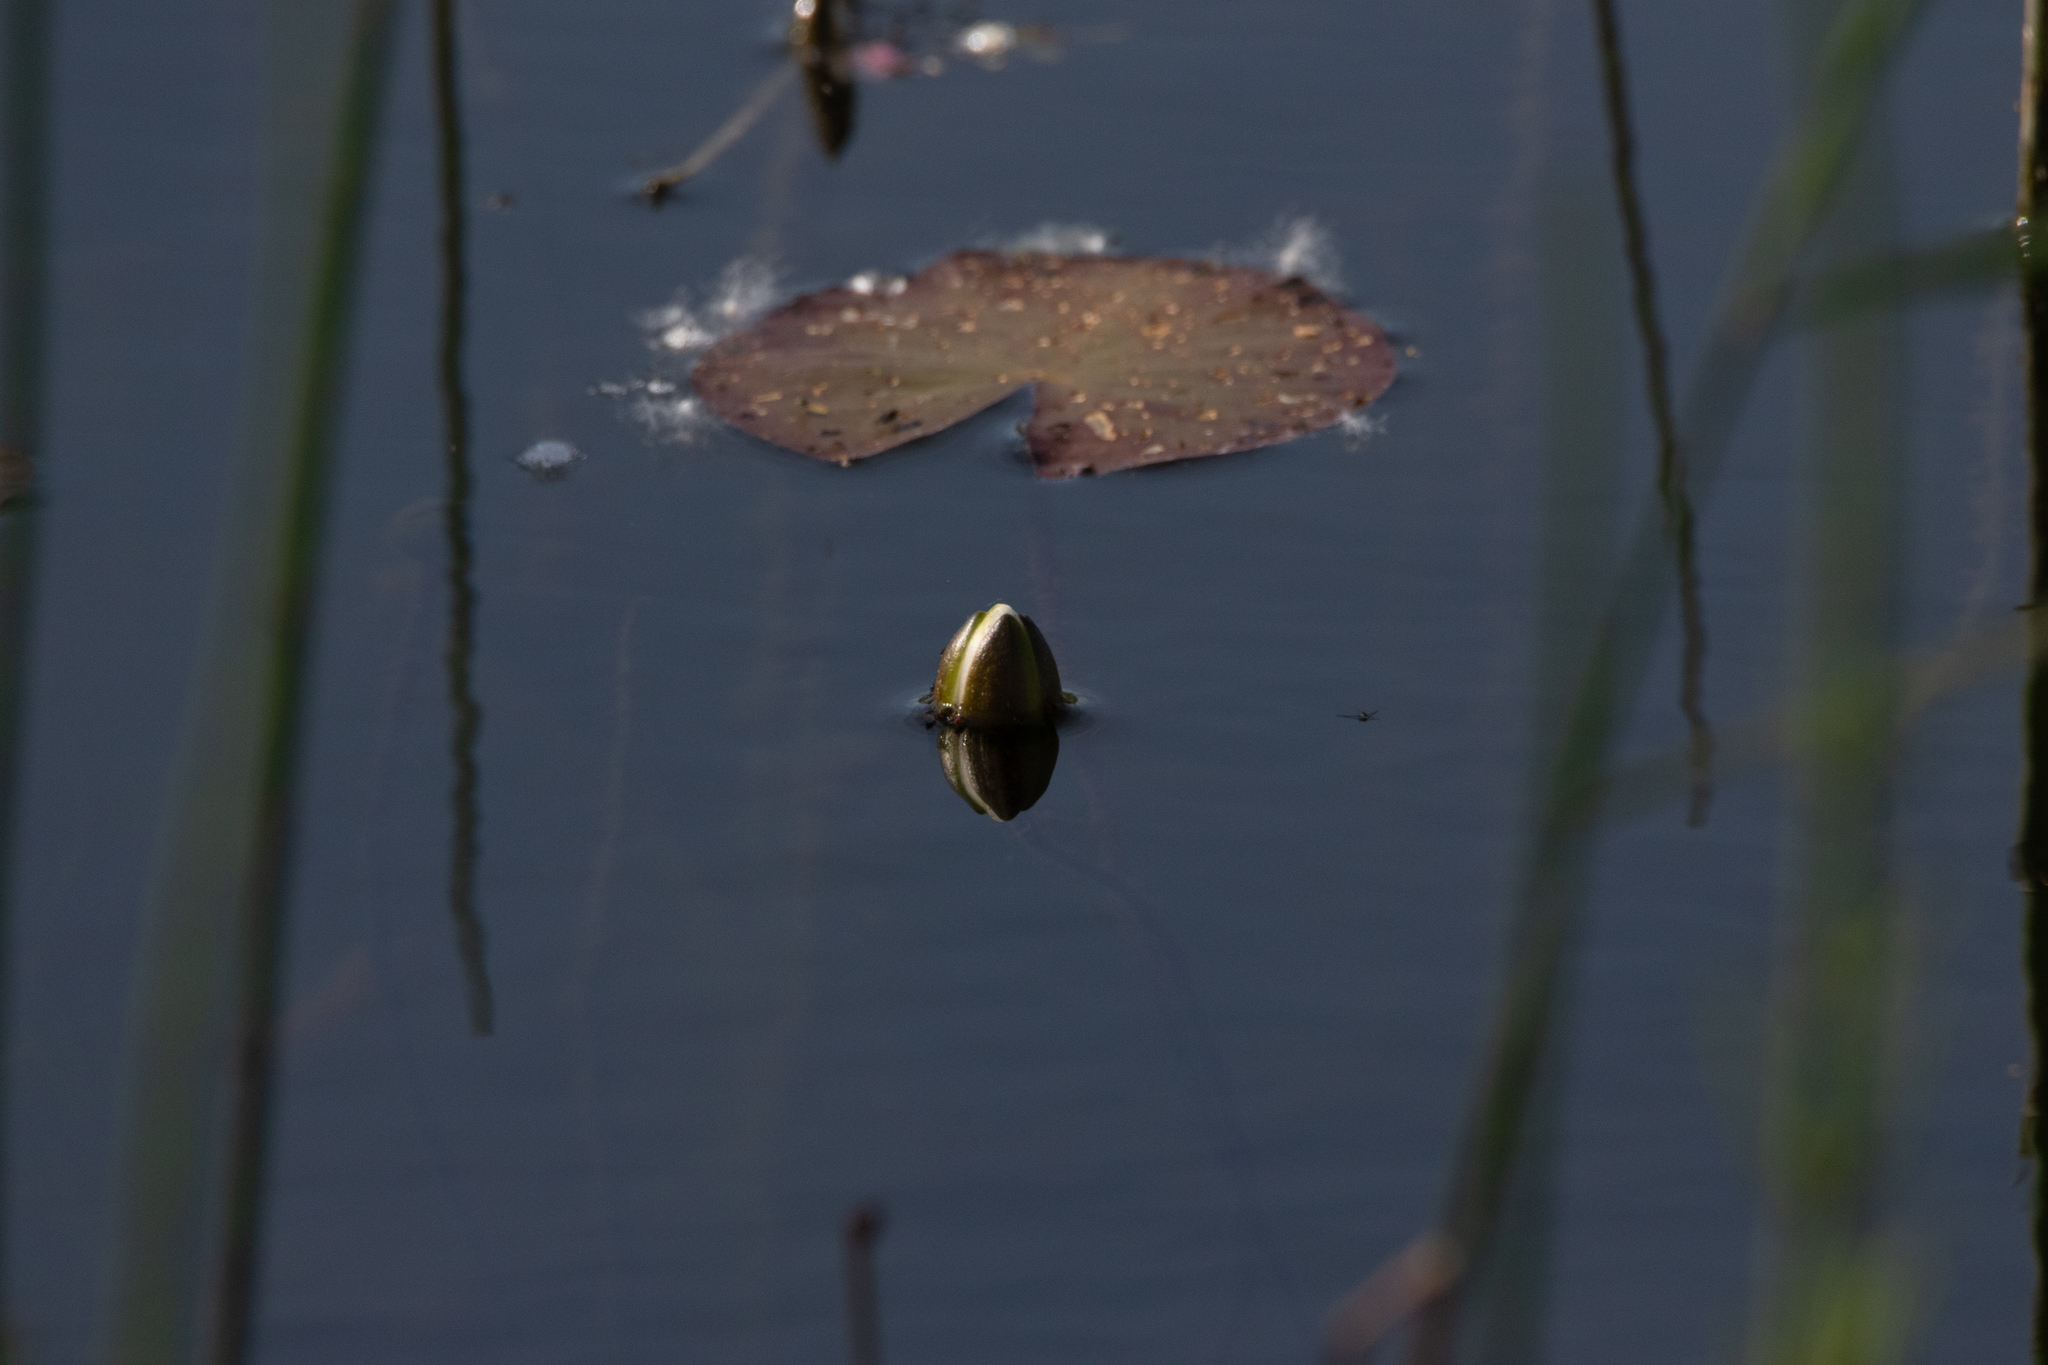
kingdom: Plantae
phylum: Tracheophyta
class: Magnoliopsida
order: Nymphaeales
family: Nymphaeaceae
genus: Nymphaea
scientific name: Nymphaea candida
